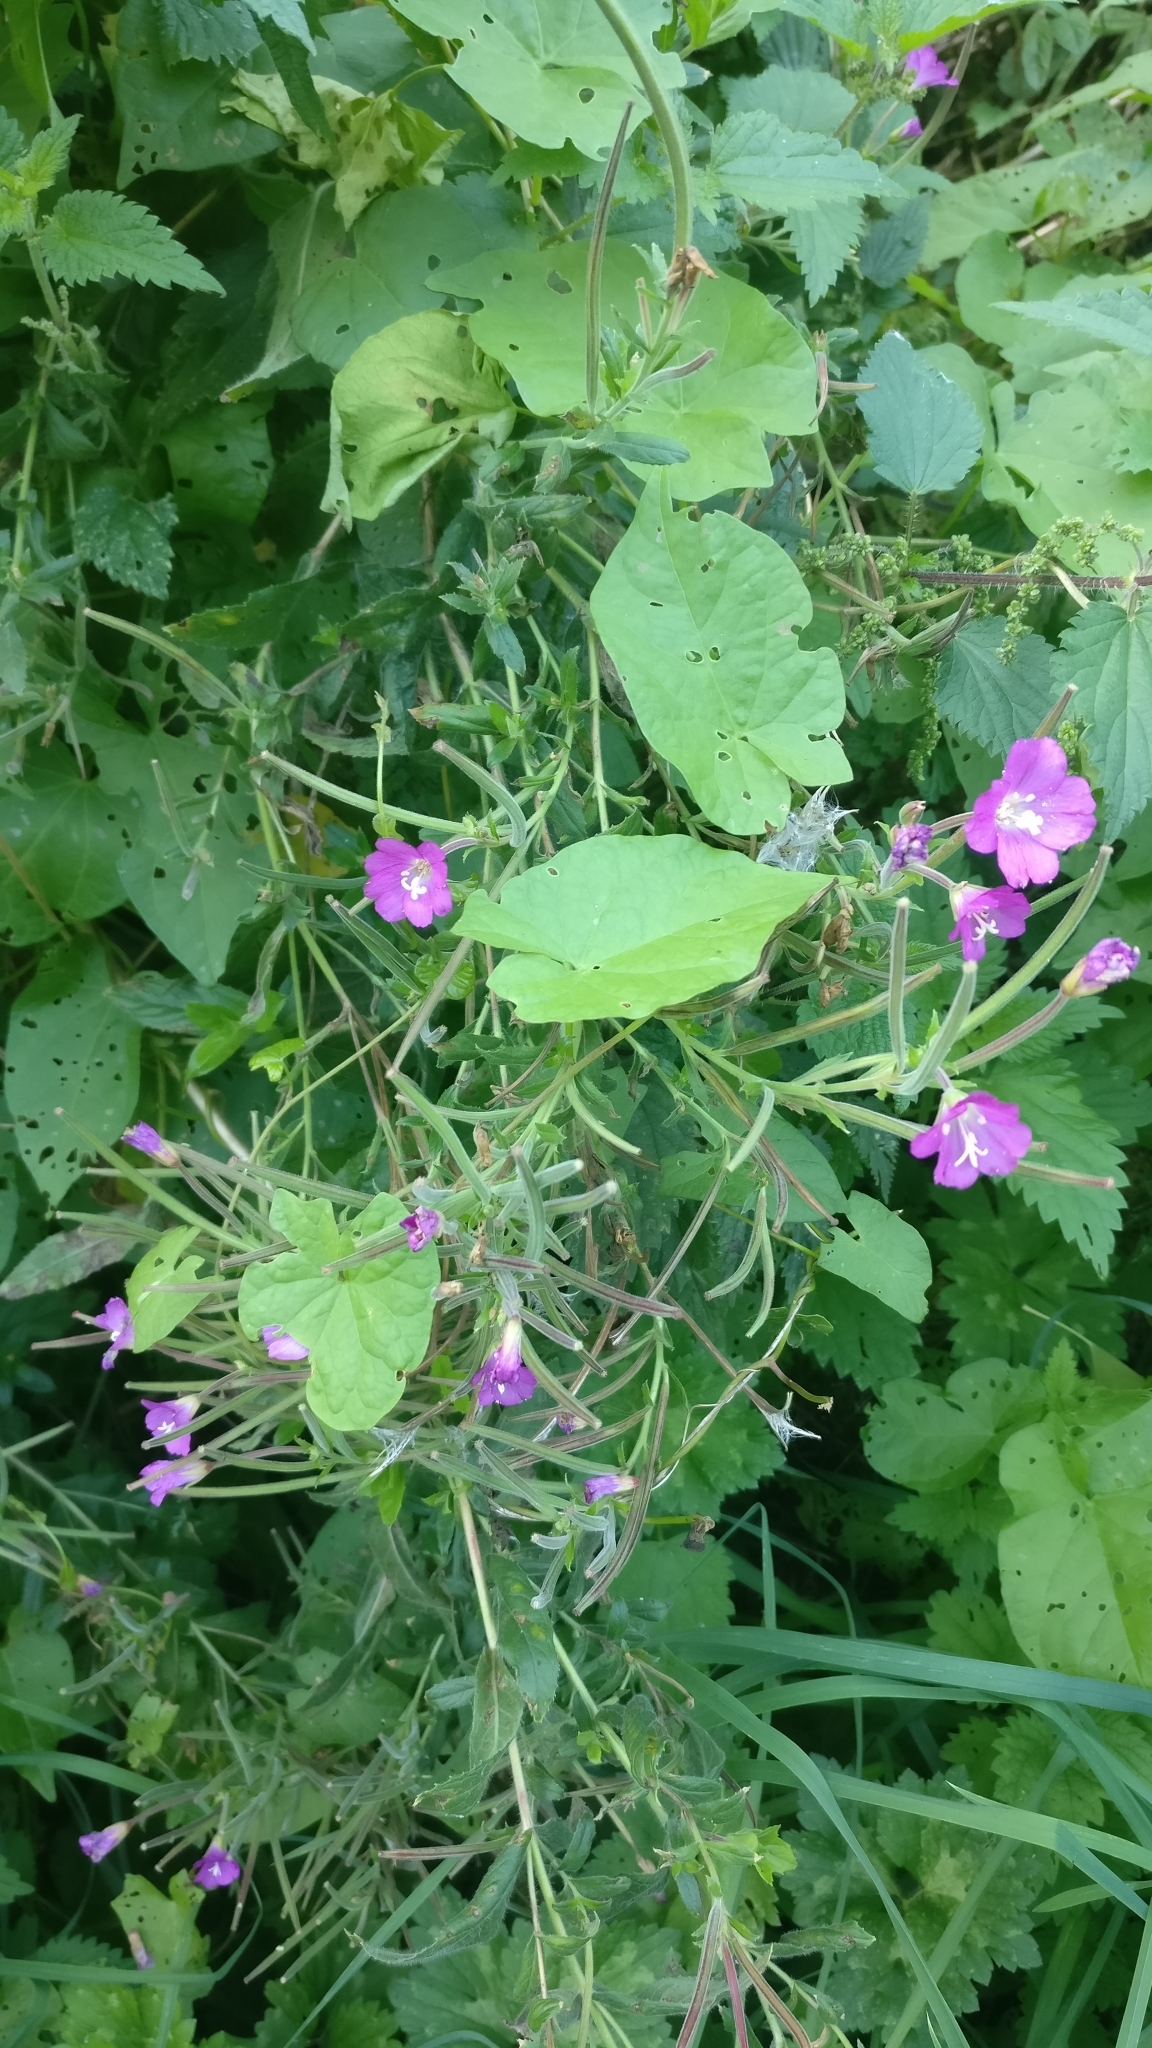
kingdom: Plantae
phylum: Tracheophyta
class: Magnoliopsida
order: Myrtales
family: Onagraceae
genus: Epilobium
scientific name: Epilobium hirsutum
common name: Great willowherb
